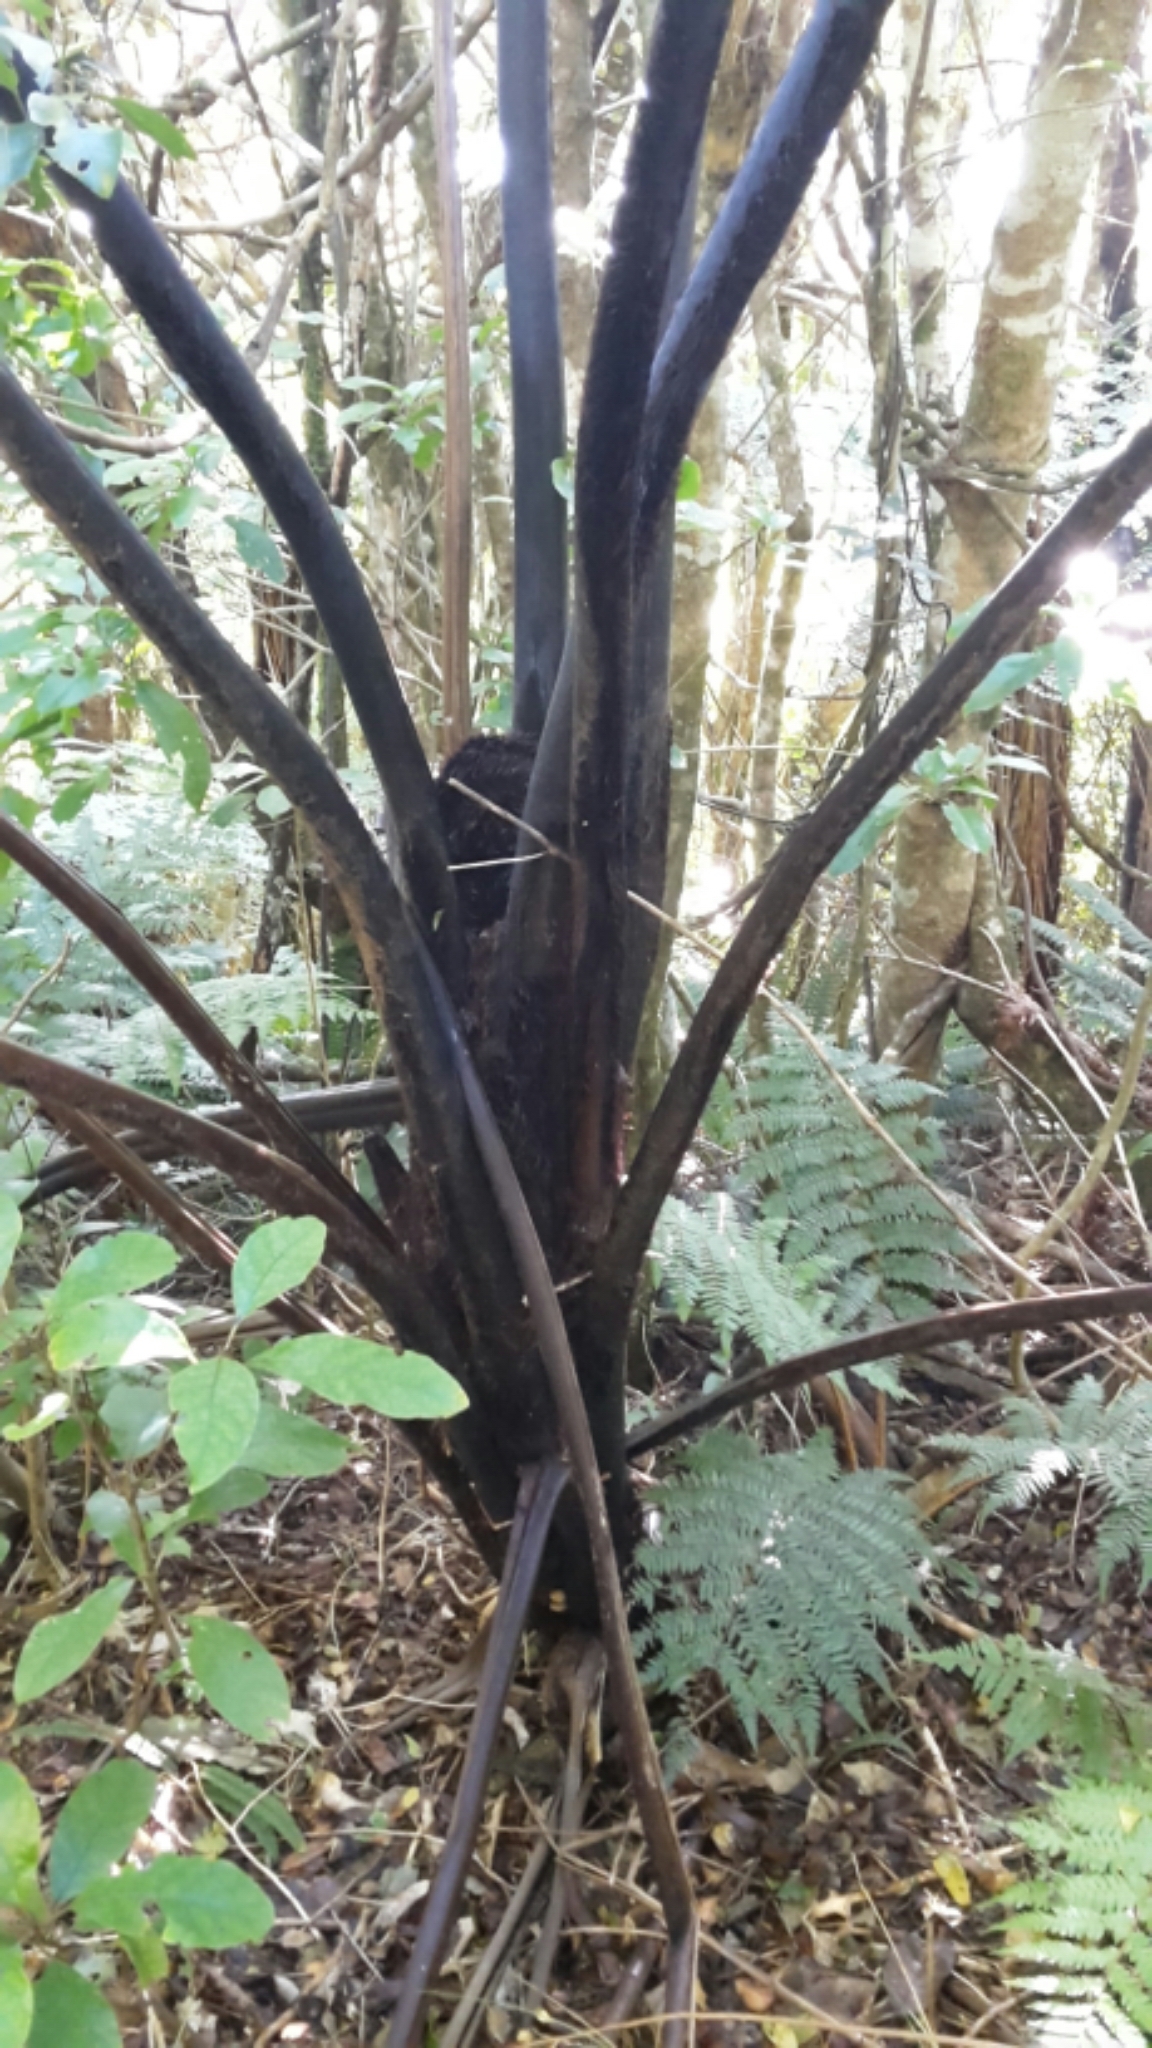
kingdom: Plantae
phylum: Tracheophyta
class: Polypodiopsida
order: Cyatheales
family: Cyatheaceae
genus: Sphaeropteris
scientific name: Sphaeropteris medullaris
